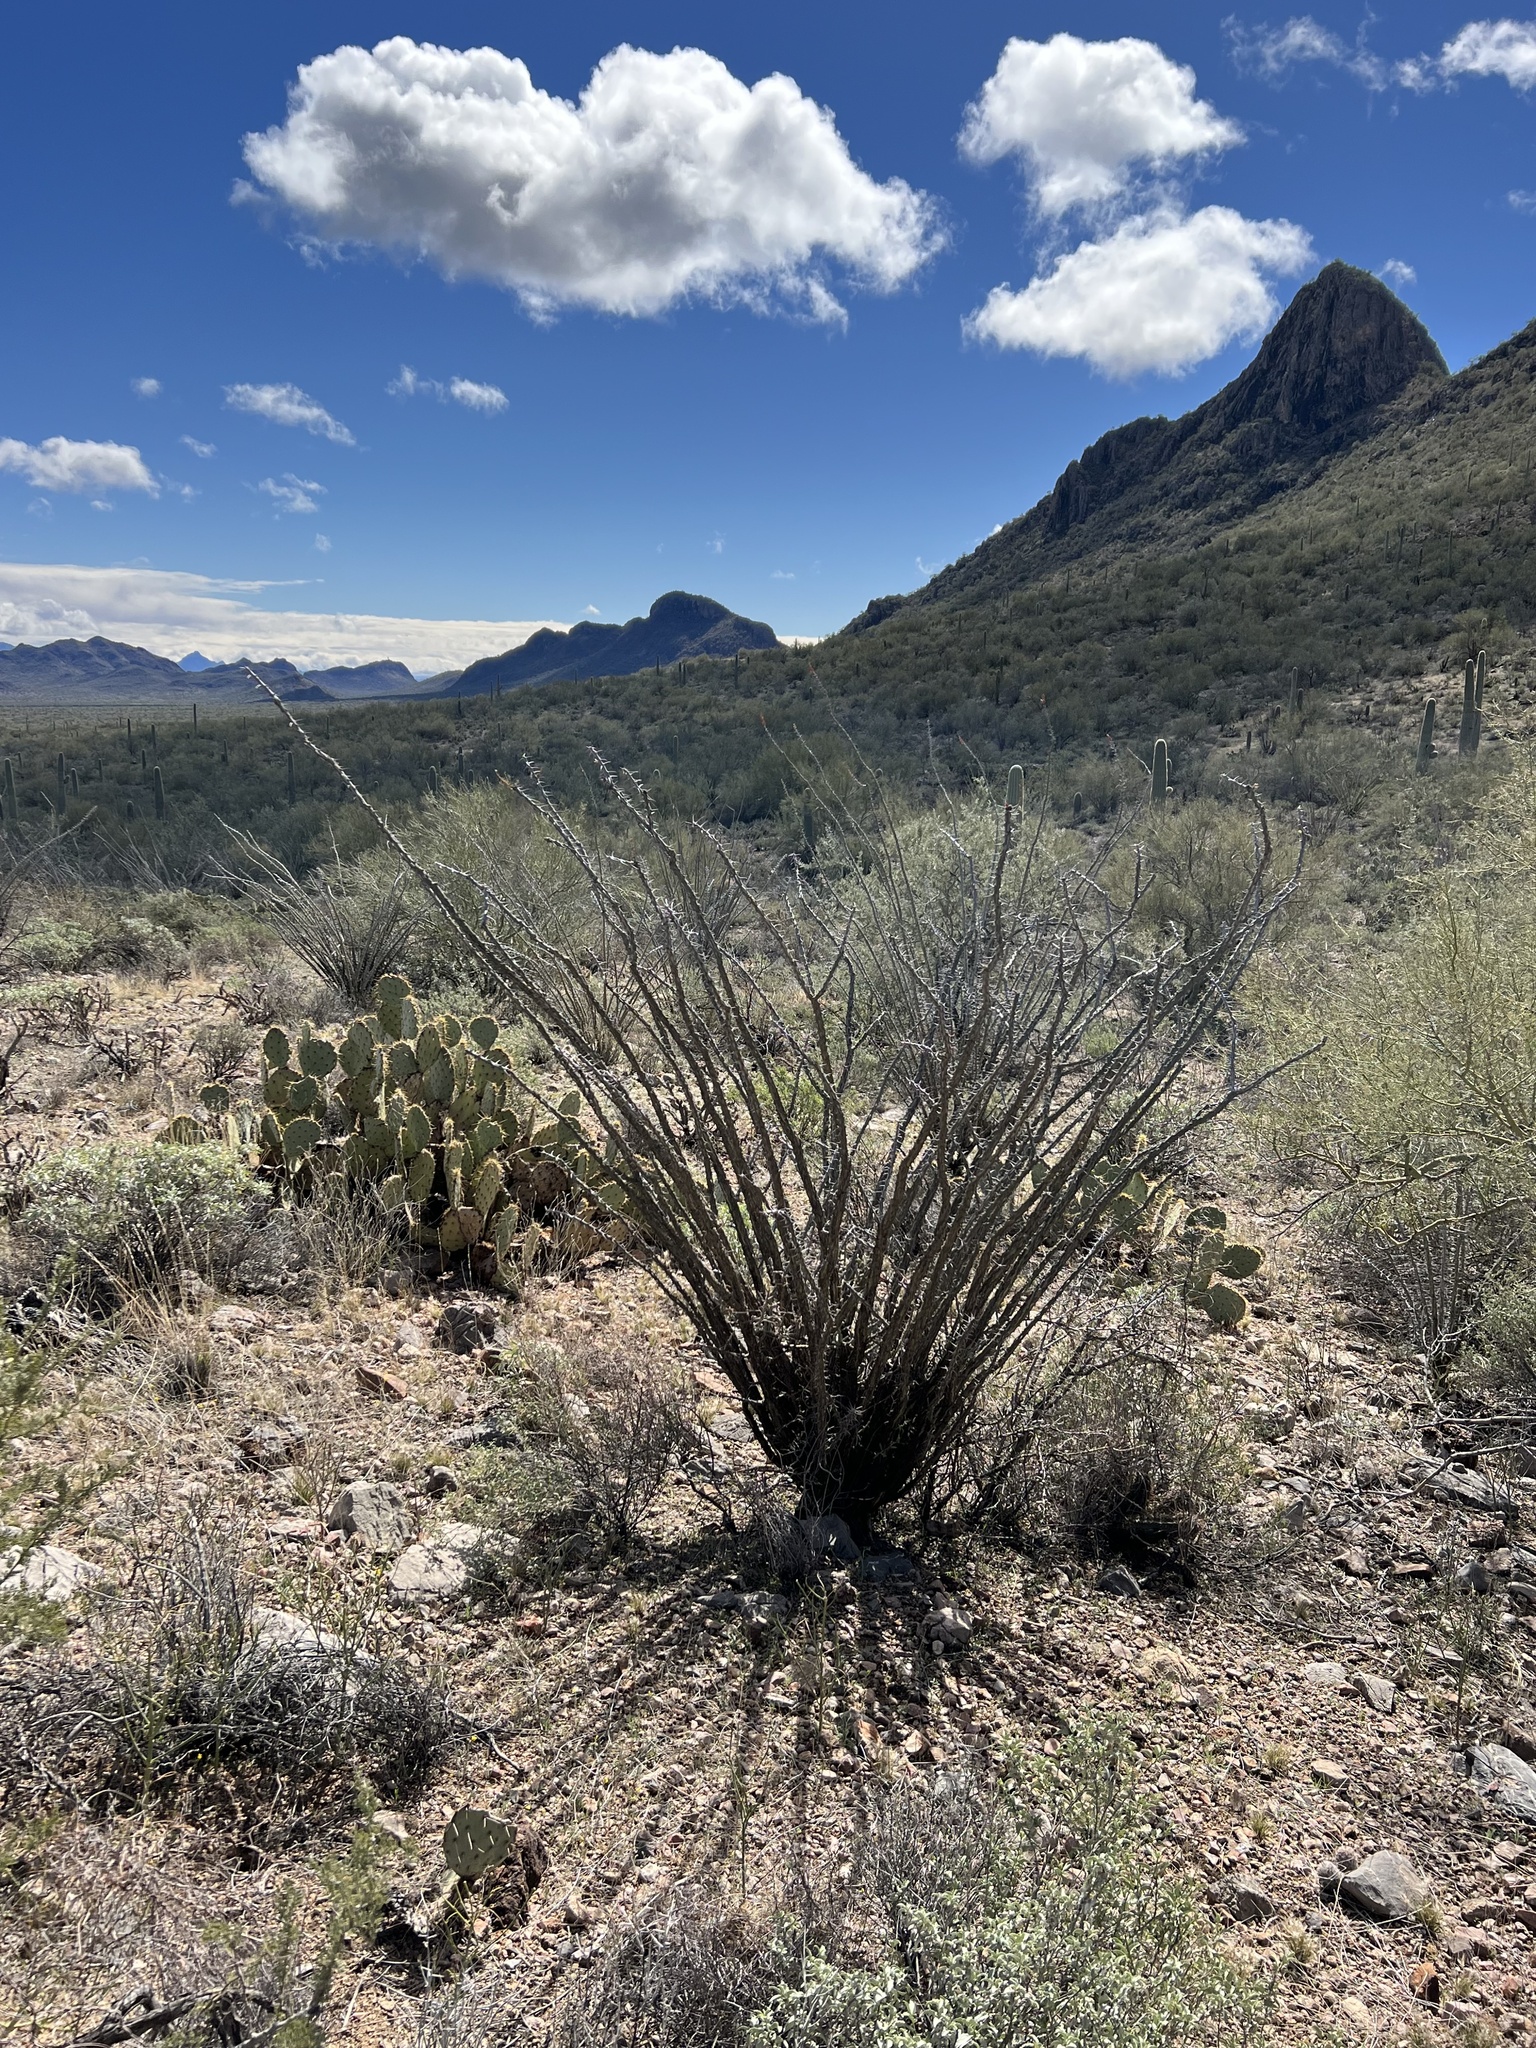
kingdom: Plantae
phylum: Tracheophyta
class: Magnoliopsida
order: Ericales
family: Fouquieriaceae
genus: Fouquieria
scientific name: Fouquieria splendens
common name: Vine-cactus
